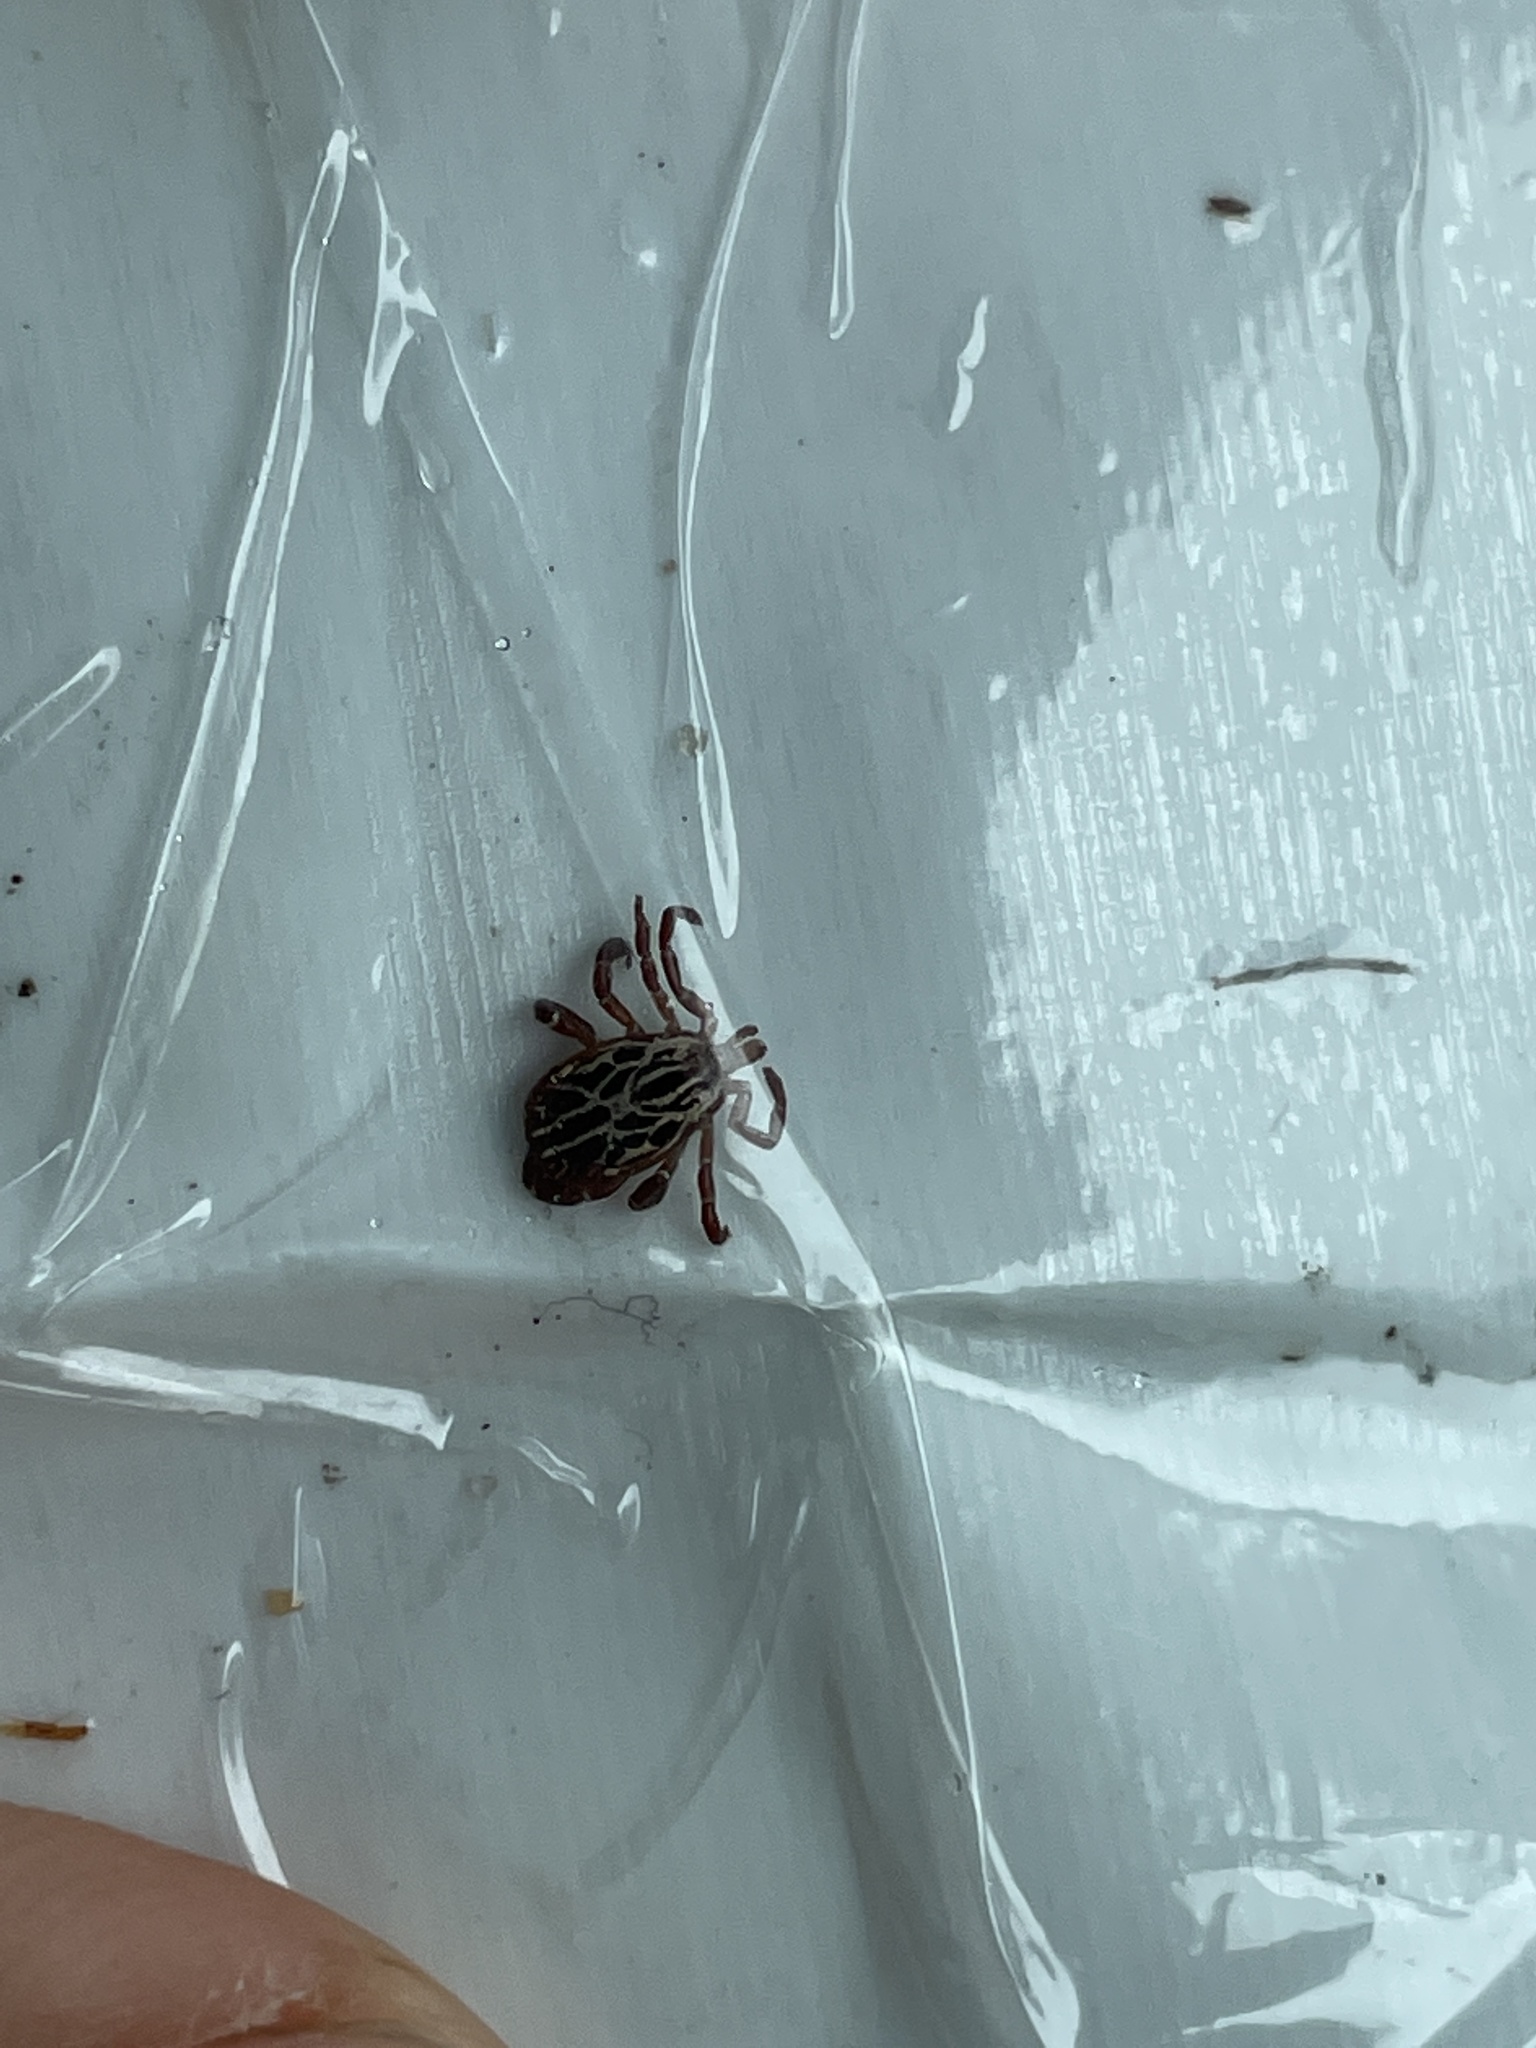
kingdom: Animalia
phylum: Arthropoda
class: Arachnida
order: Ixodida
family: Ixodidae
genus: Amblyomma
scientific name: Amblyomma maculatum
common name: Gulf coast tick
